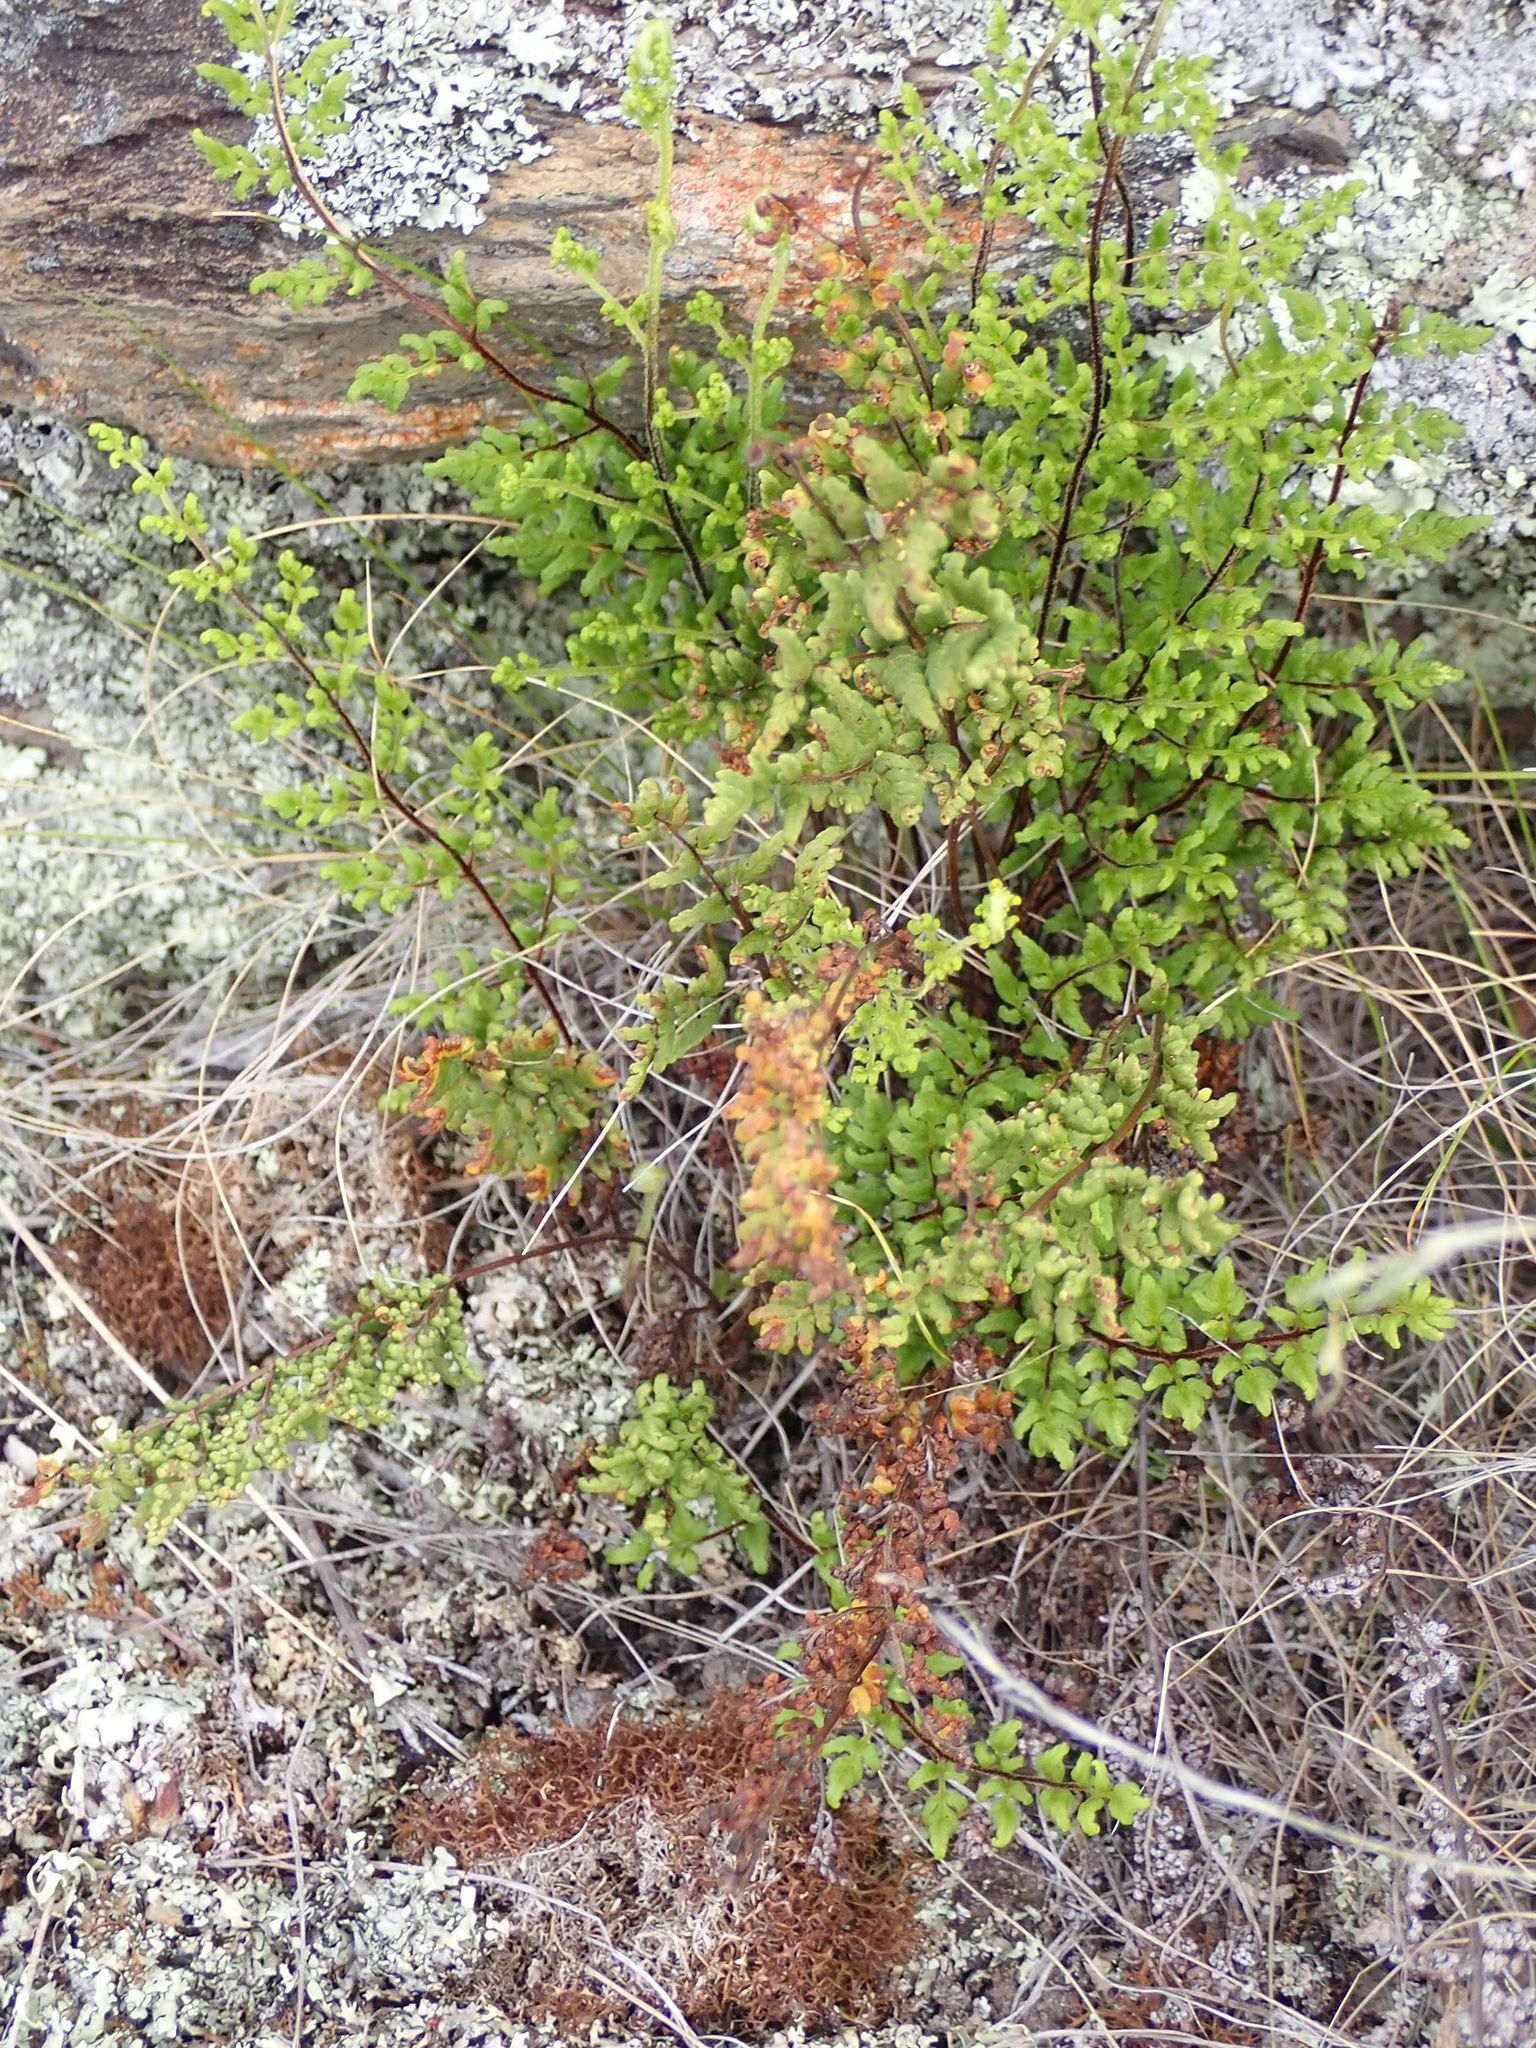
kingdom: Plantae
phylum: Tracheophyta
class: Polypodiopsida
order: Polypodiales
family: Pteridaceae
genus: Cheilanthes
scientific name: Cheilanthes sieberi
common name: Mulga fern
